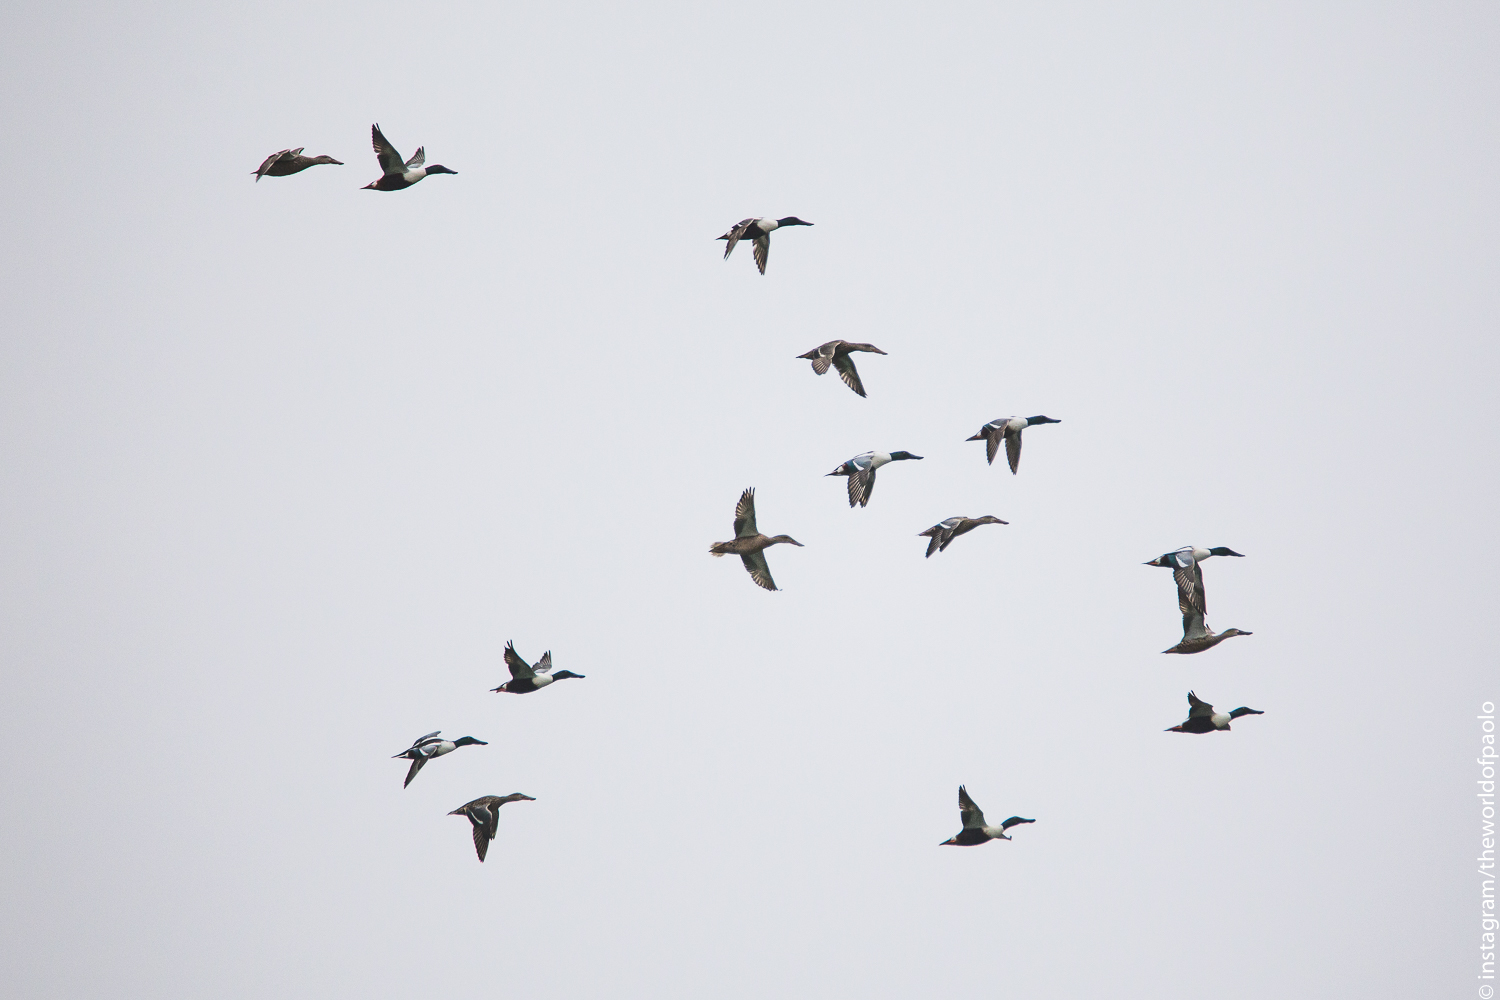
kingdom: Animalia
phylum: Chordata
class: Aves
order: Anseriformes
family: Anatidae
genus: Spatula
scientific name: Spatula clypeata
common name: Northern shoveler
